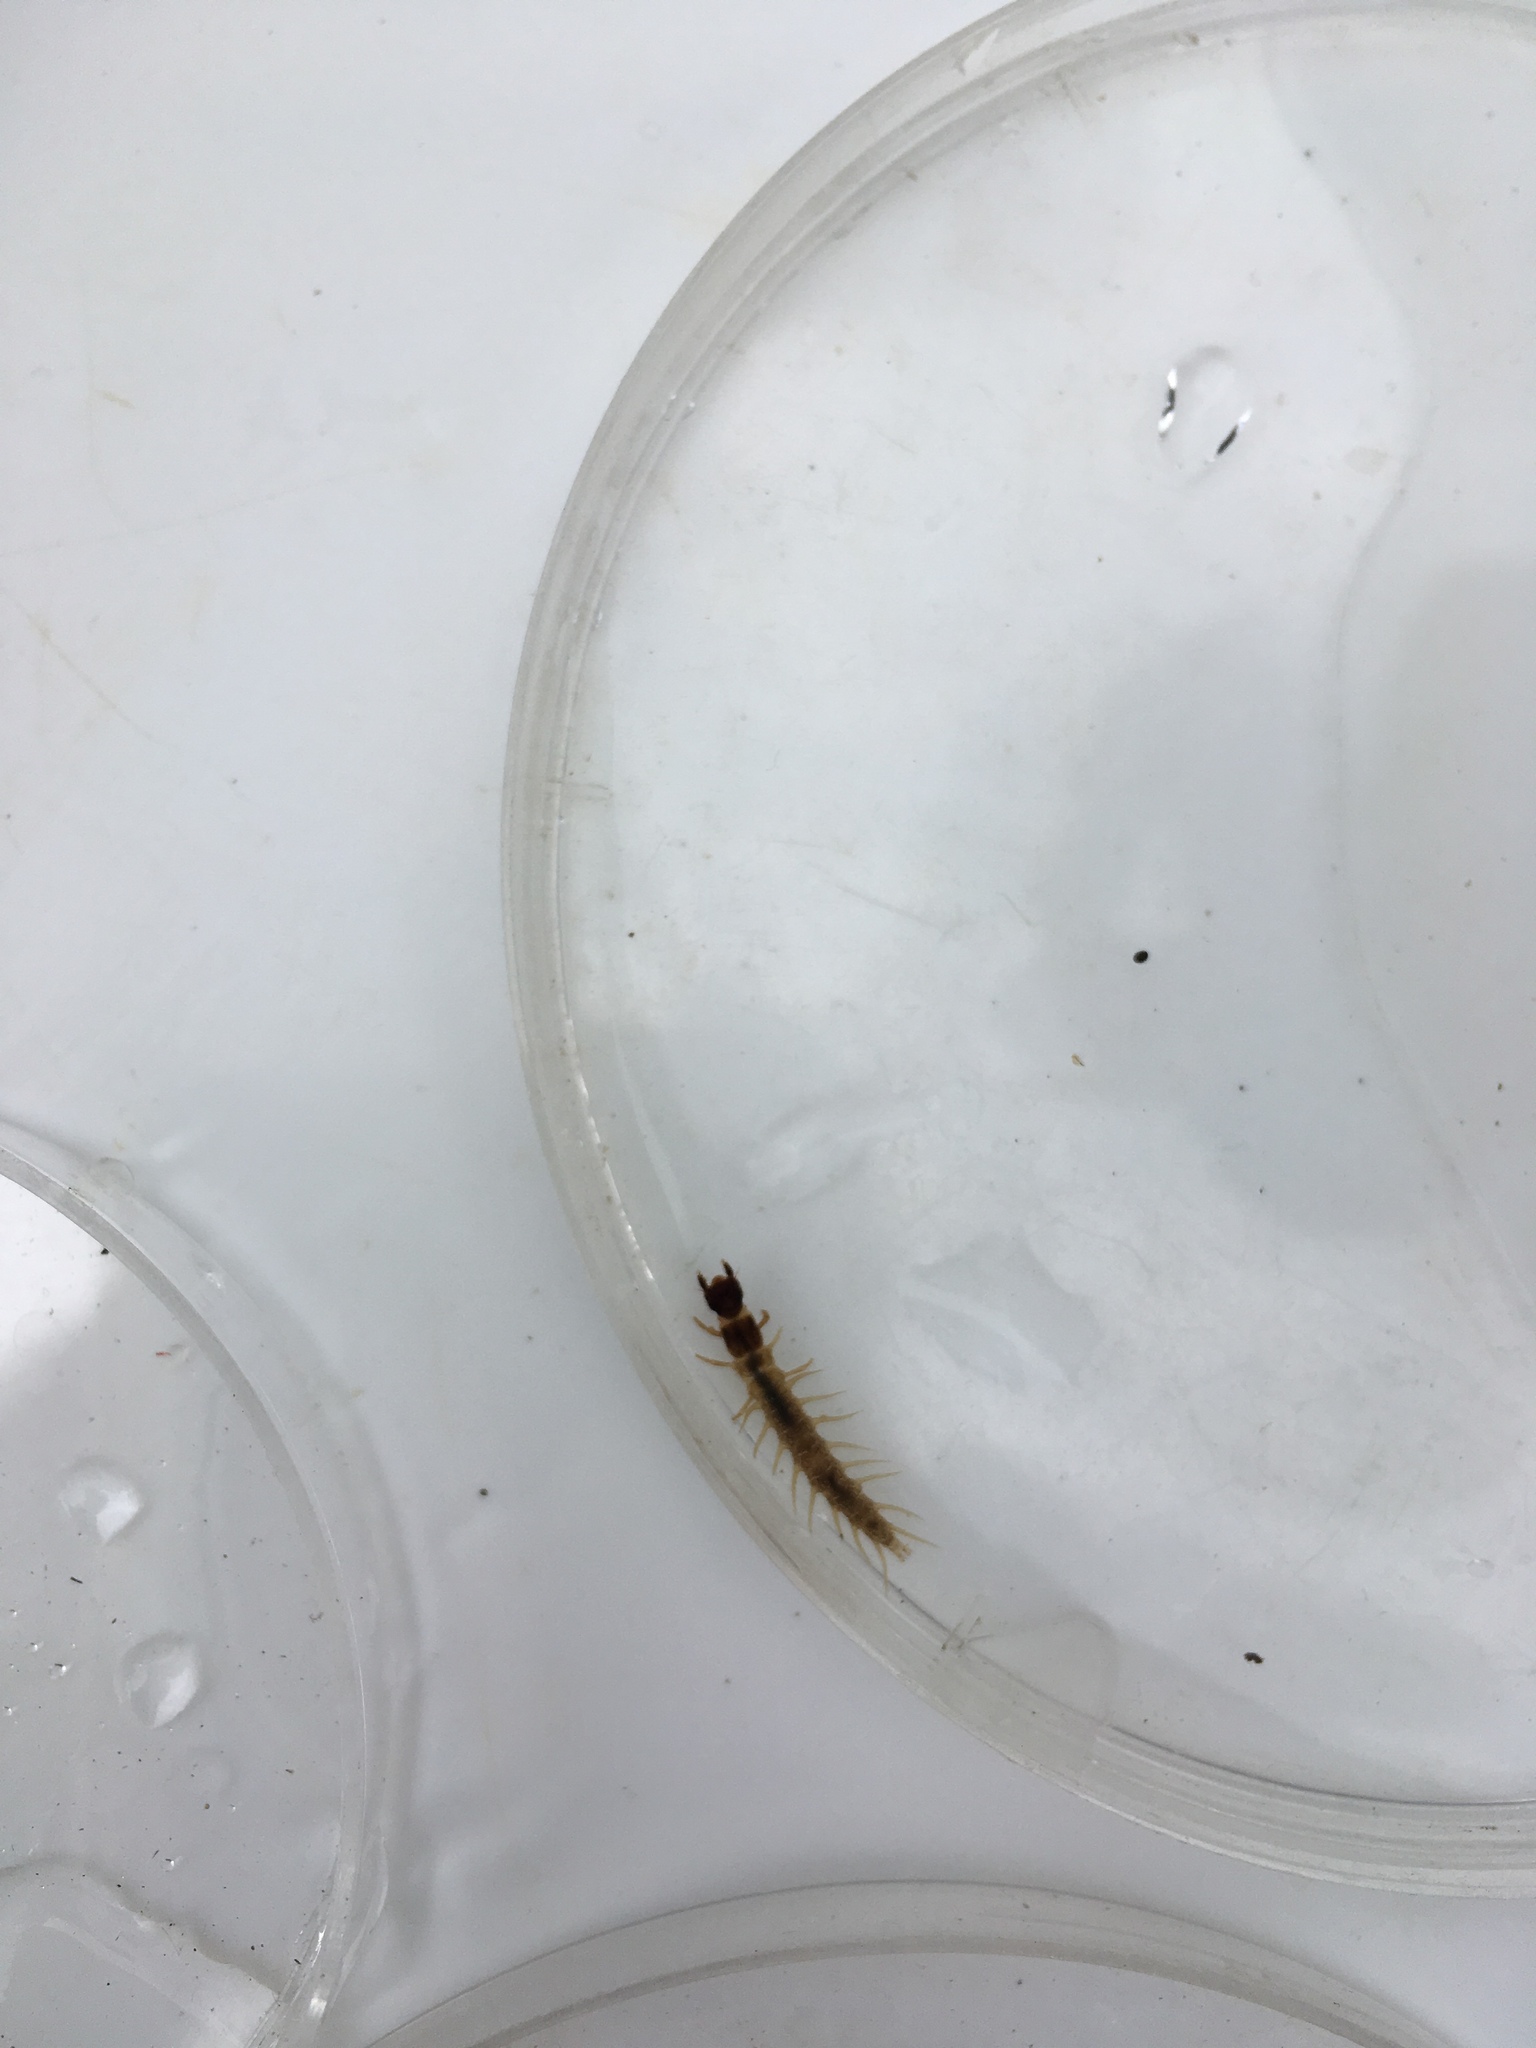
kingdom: Animalia
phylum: Arthropoda
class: Insecta
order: Megaloptera
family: Corydalidae
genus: Archichauliodes
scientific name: Archichauliodes diversus
